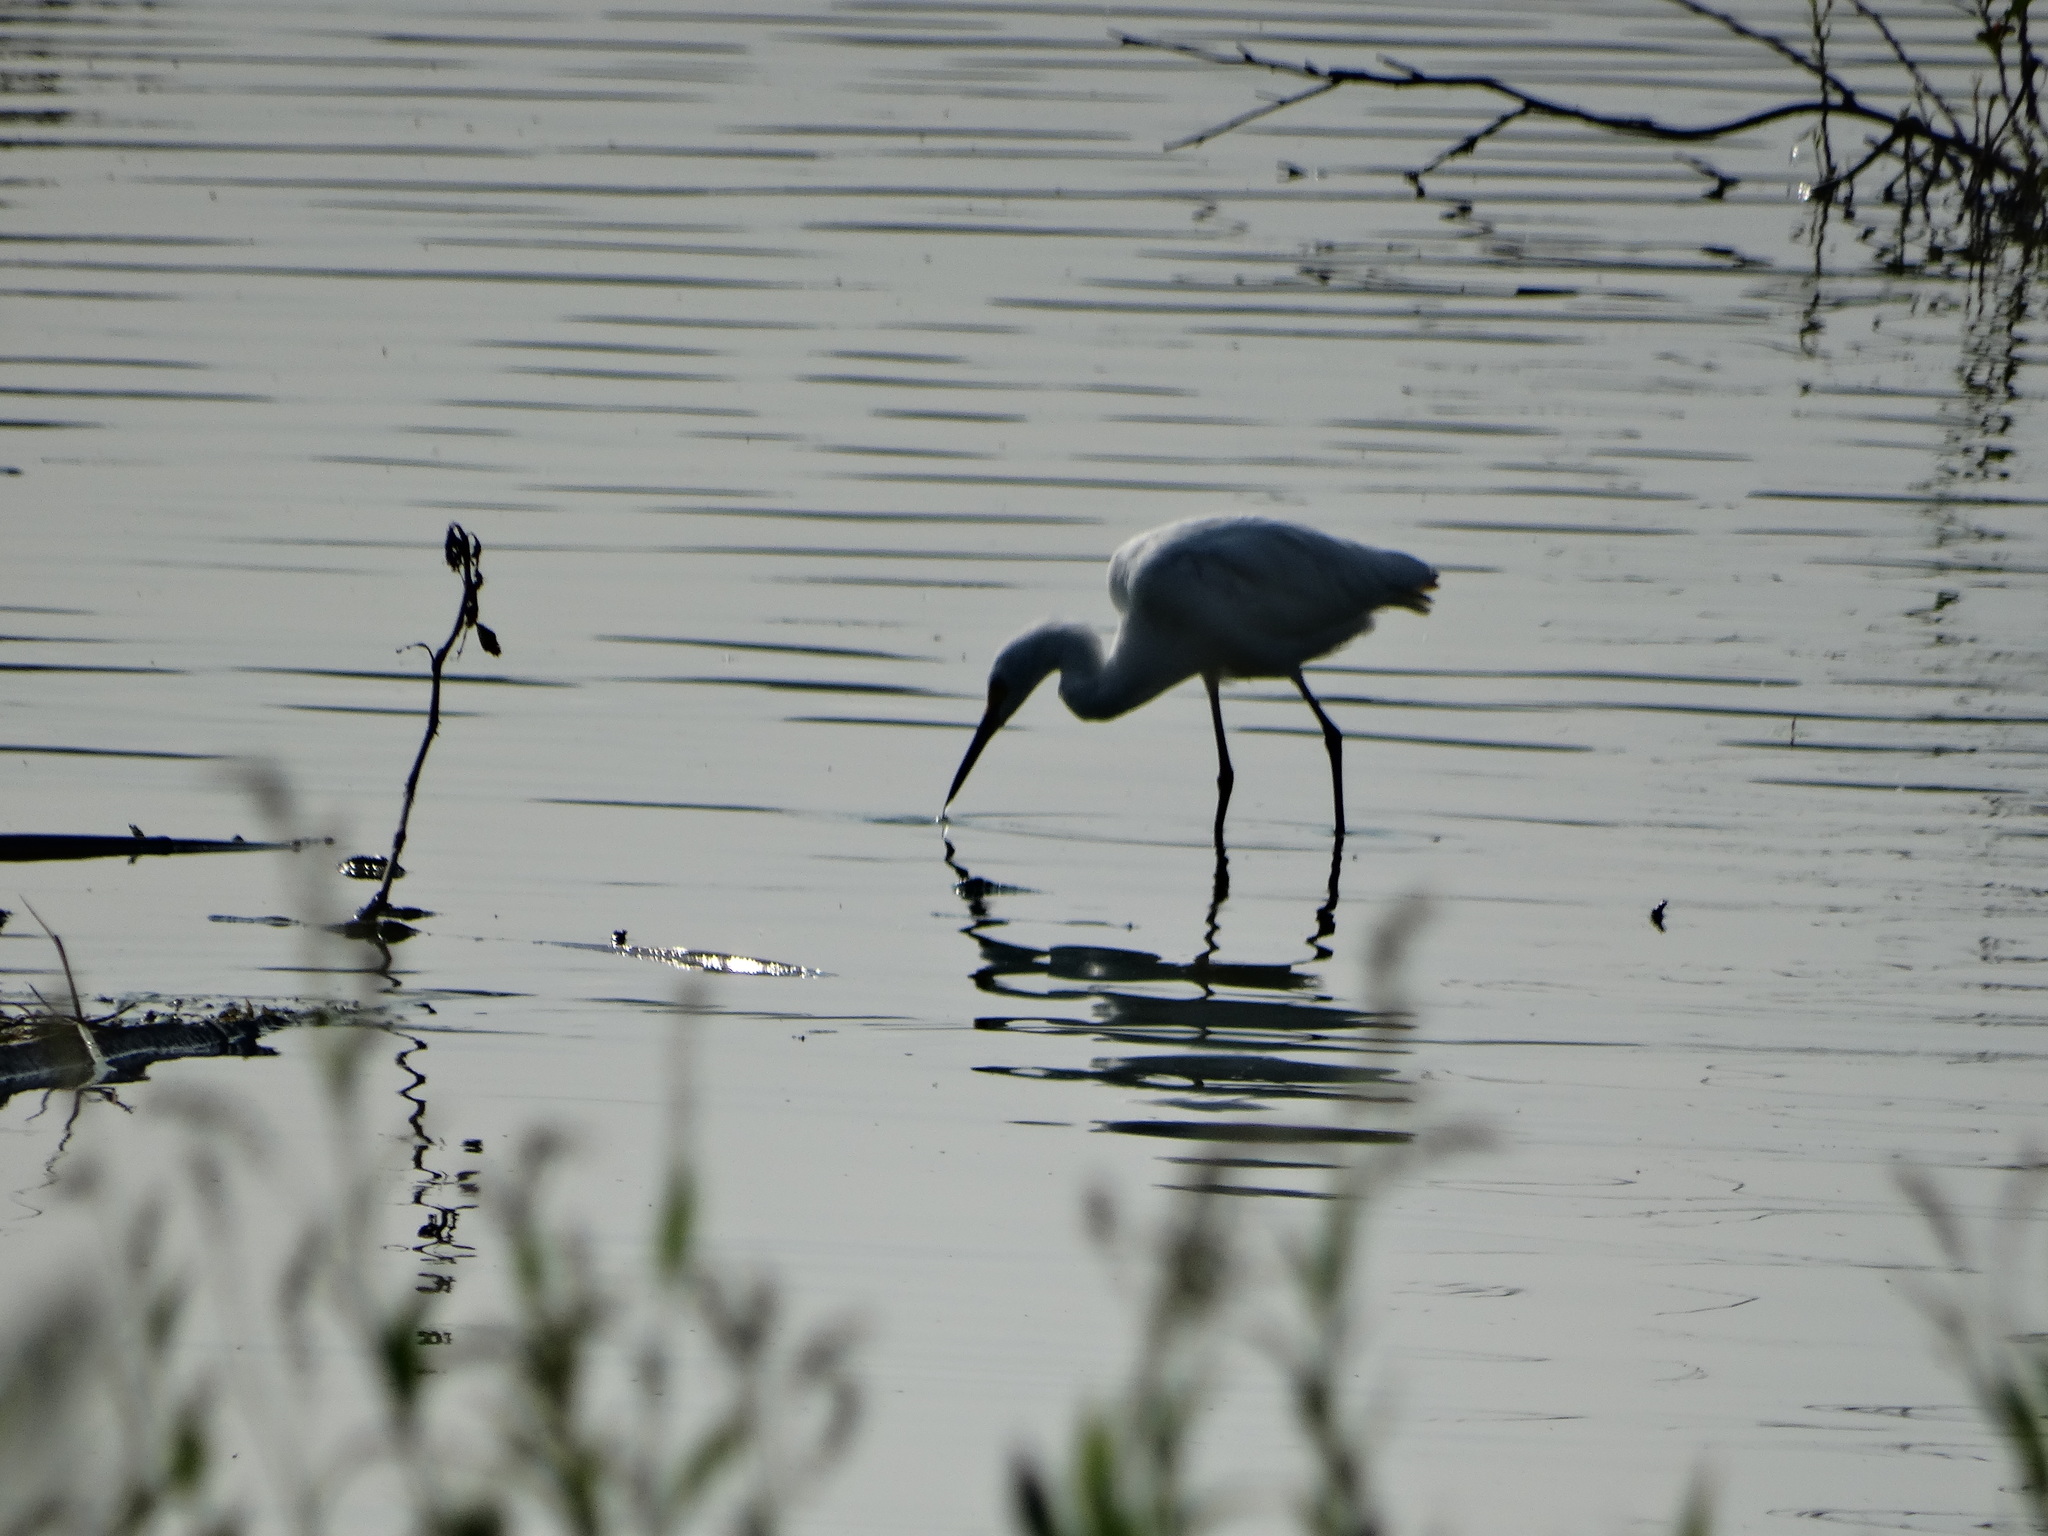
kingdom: Animalia
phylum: Chordata
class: Aves
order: Pelecaniformes
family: Ardeidae
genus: Ardea
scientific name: Ardea alba
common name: Great egret
